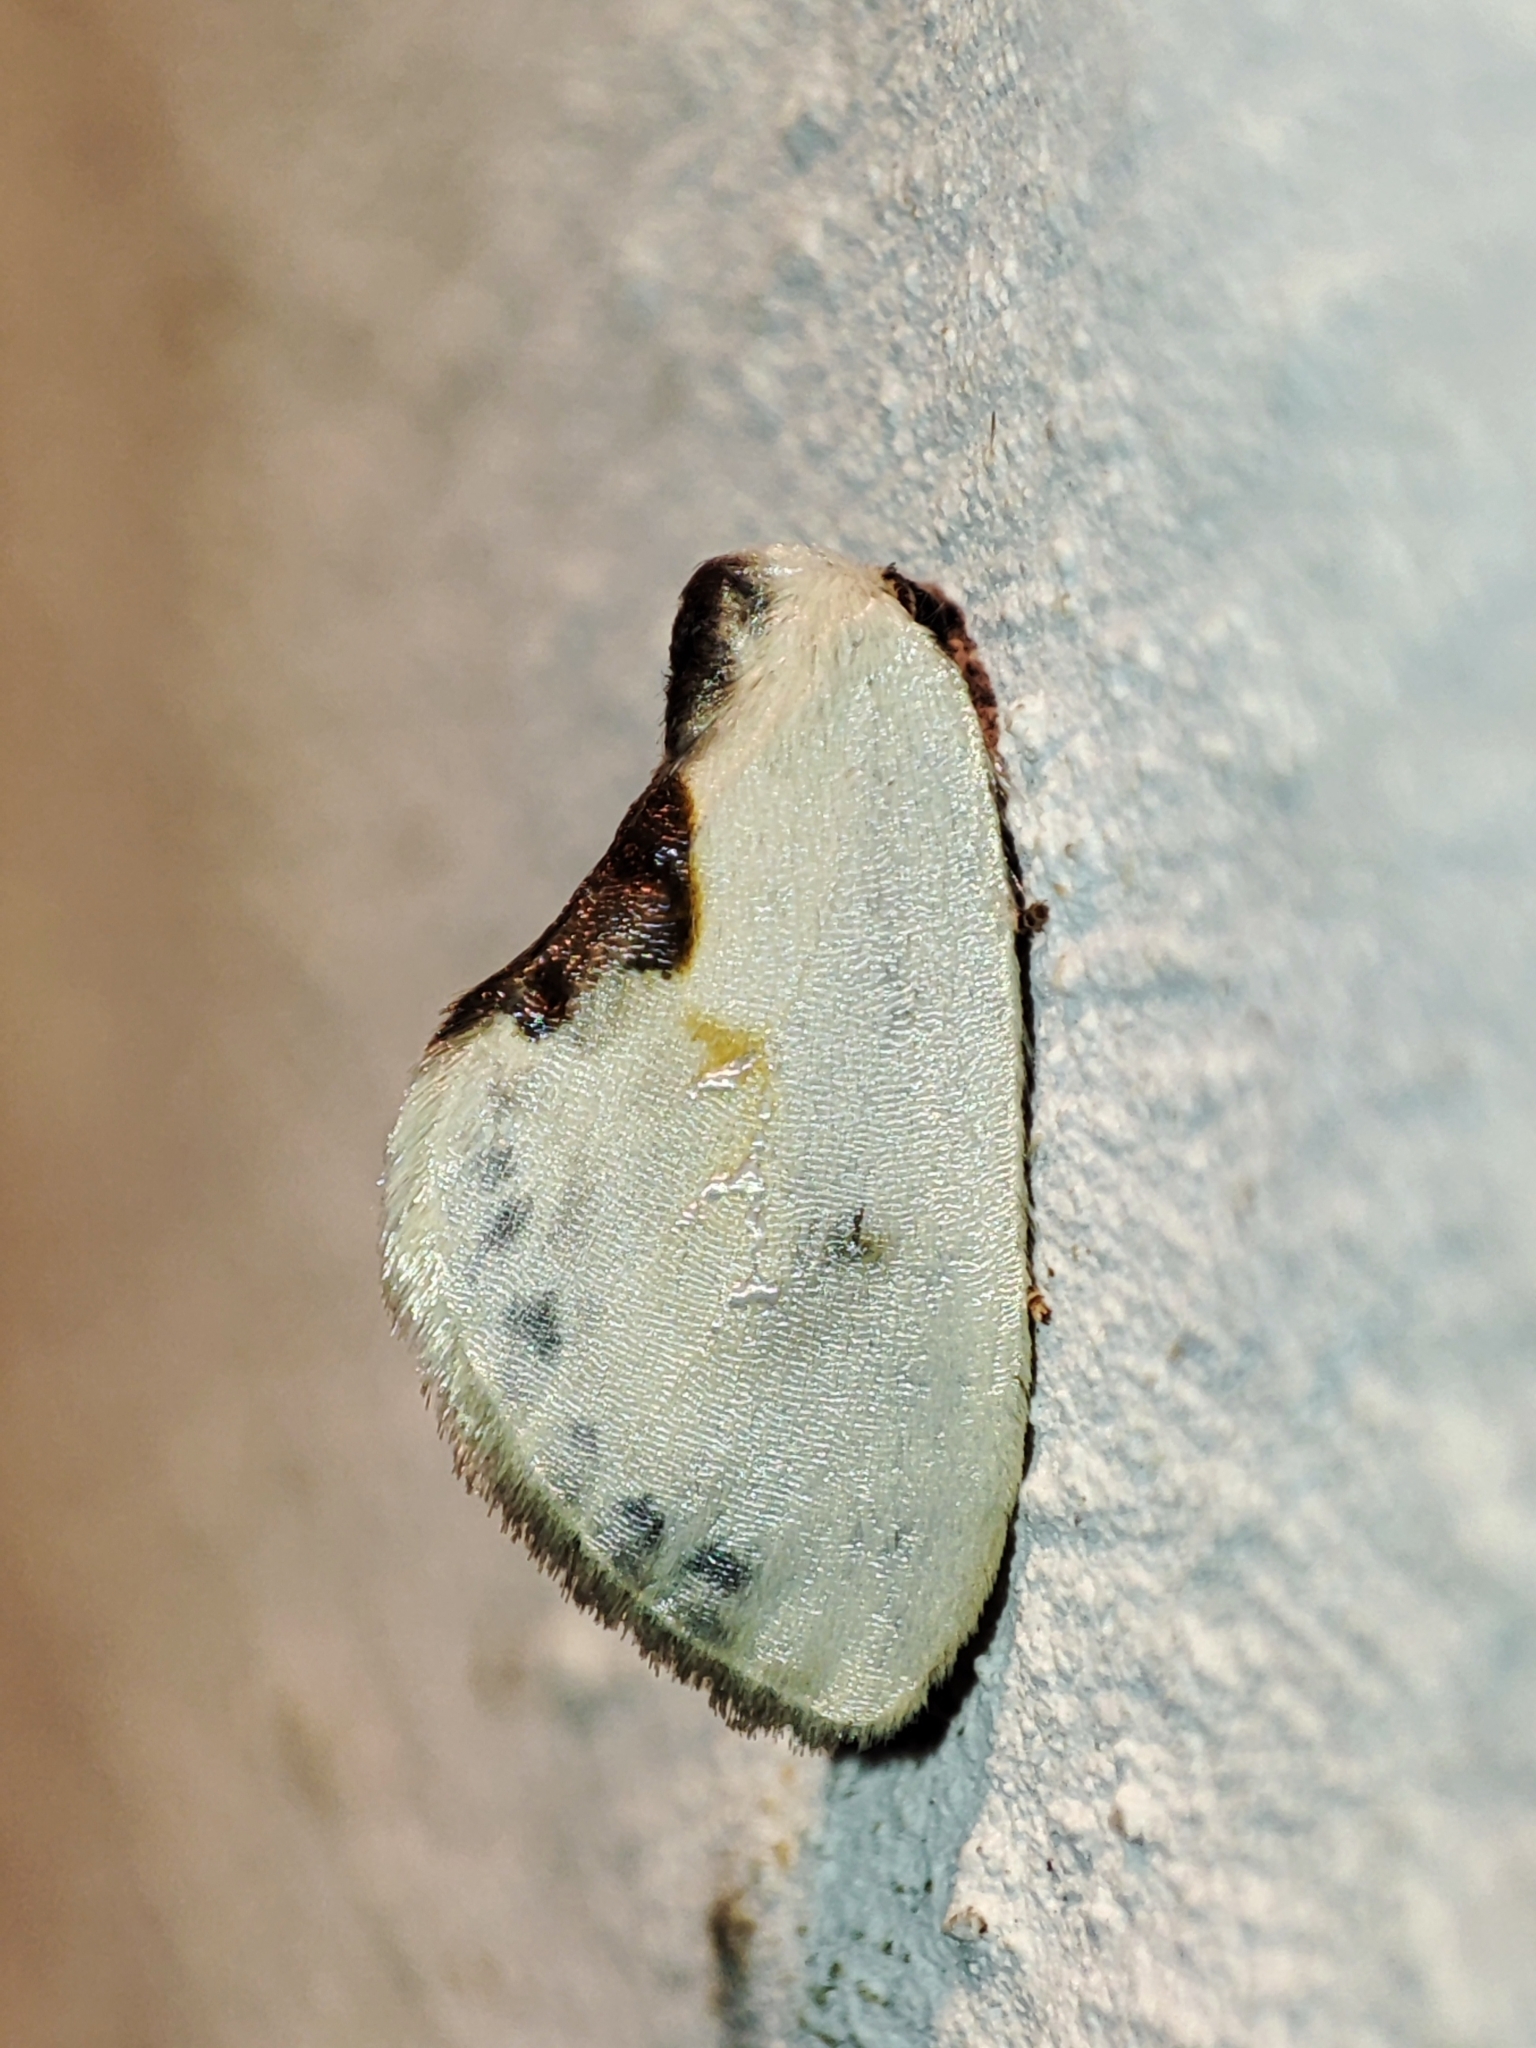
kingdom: Animalia
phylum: Arthropoda
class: Insecta
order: Lepidoptera
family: Drepanidae
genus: Cilix
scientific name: Cilix glaucata
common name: Chinese character
